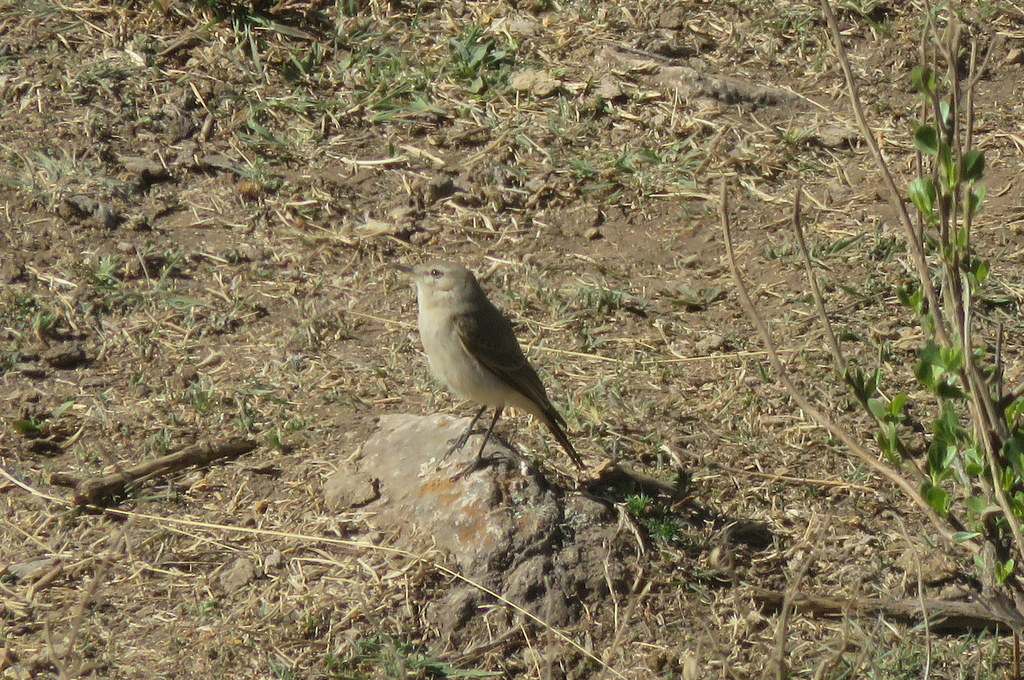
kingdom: Animalia
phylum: Chordata
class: Aves
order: Passeriformes
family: Tyrannidae
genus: Muscisaxicola
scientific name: Muscisaxicola maculirostris
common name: Spot-billed ground tyrant
